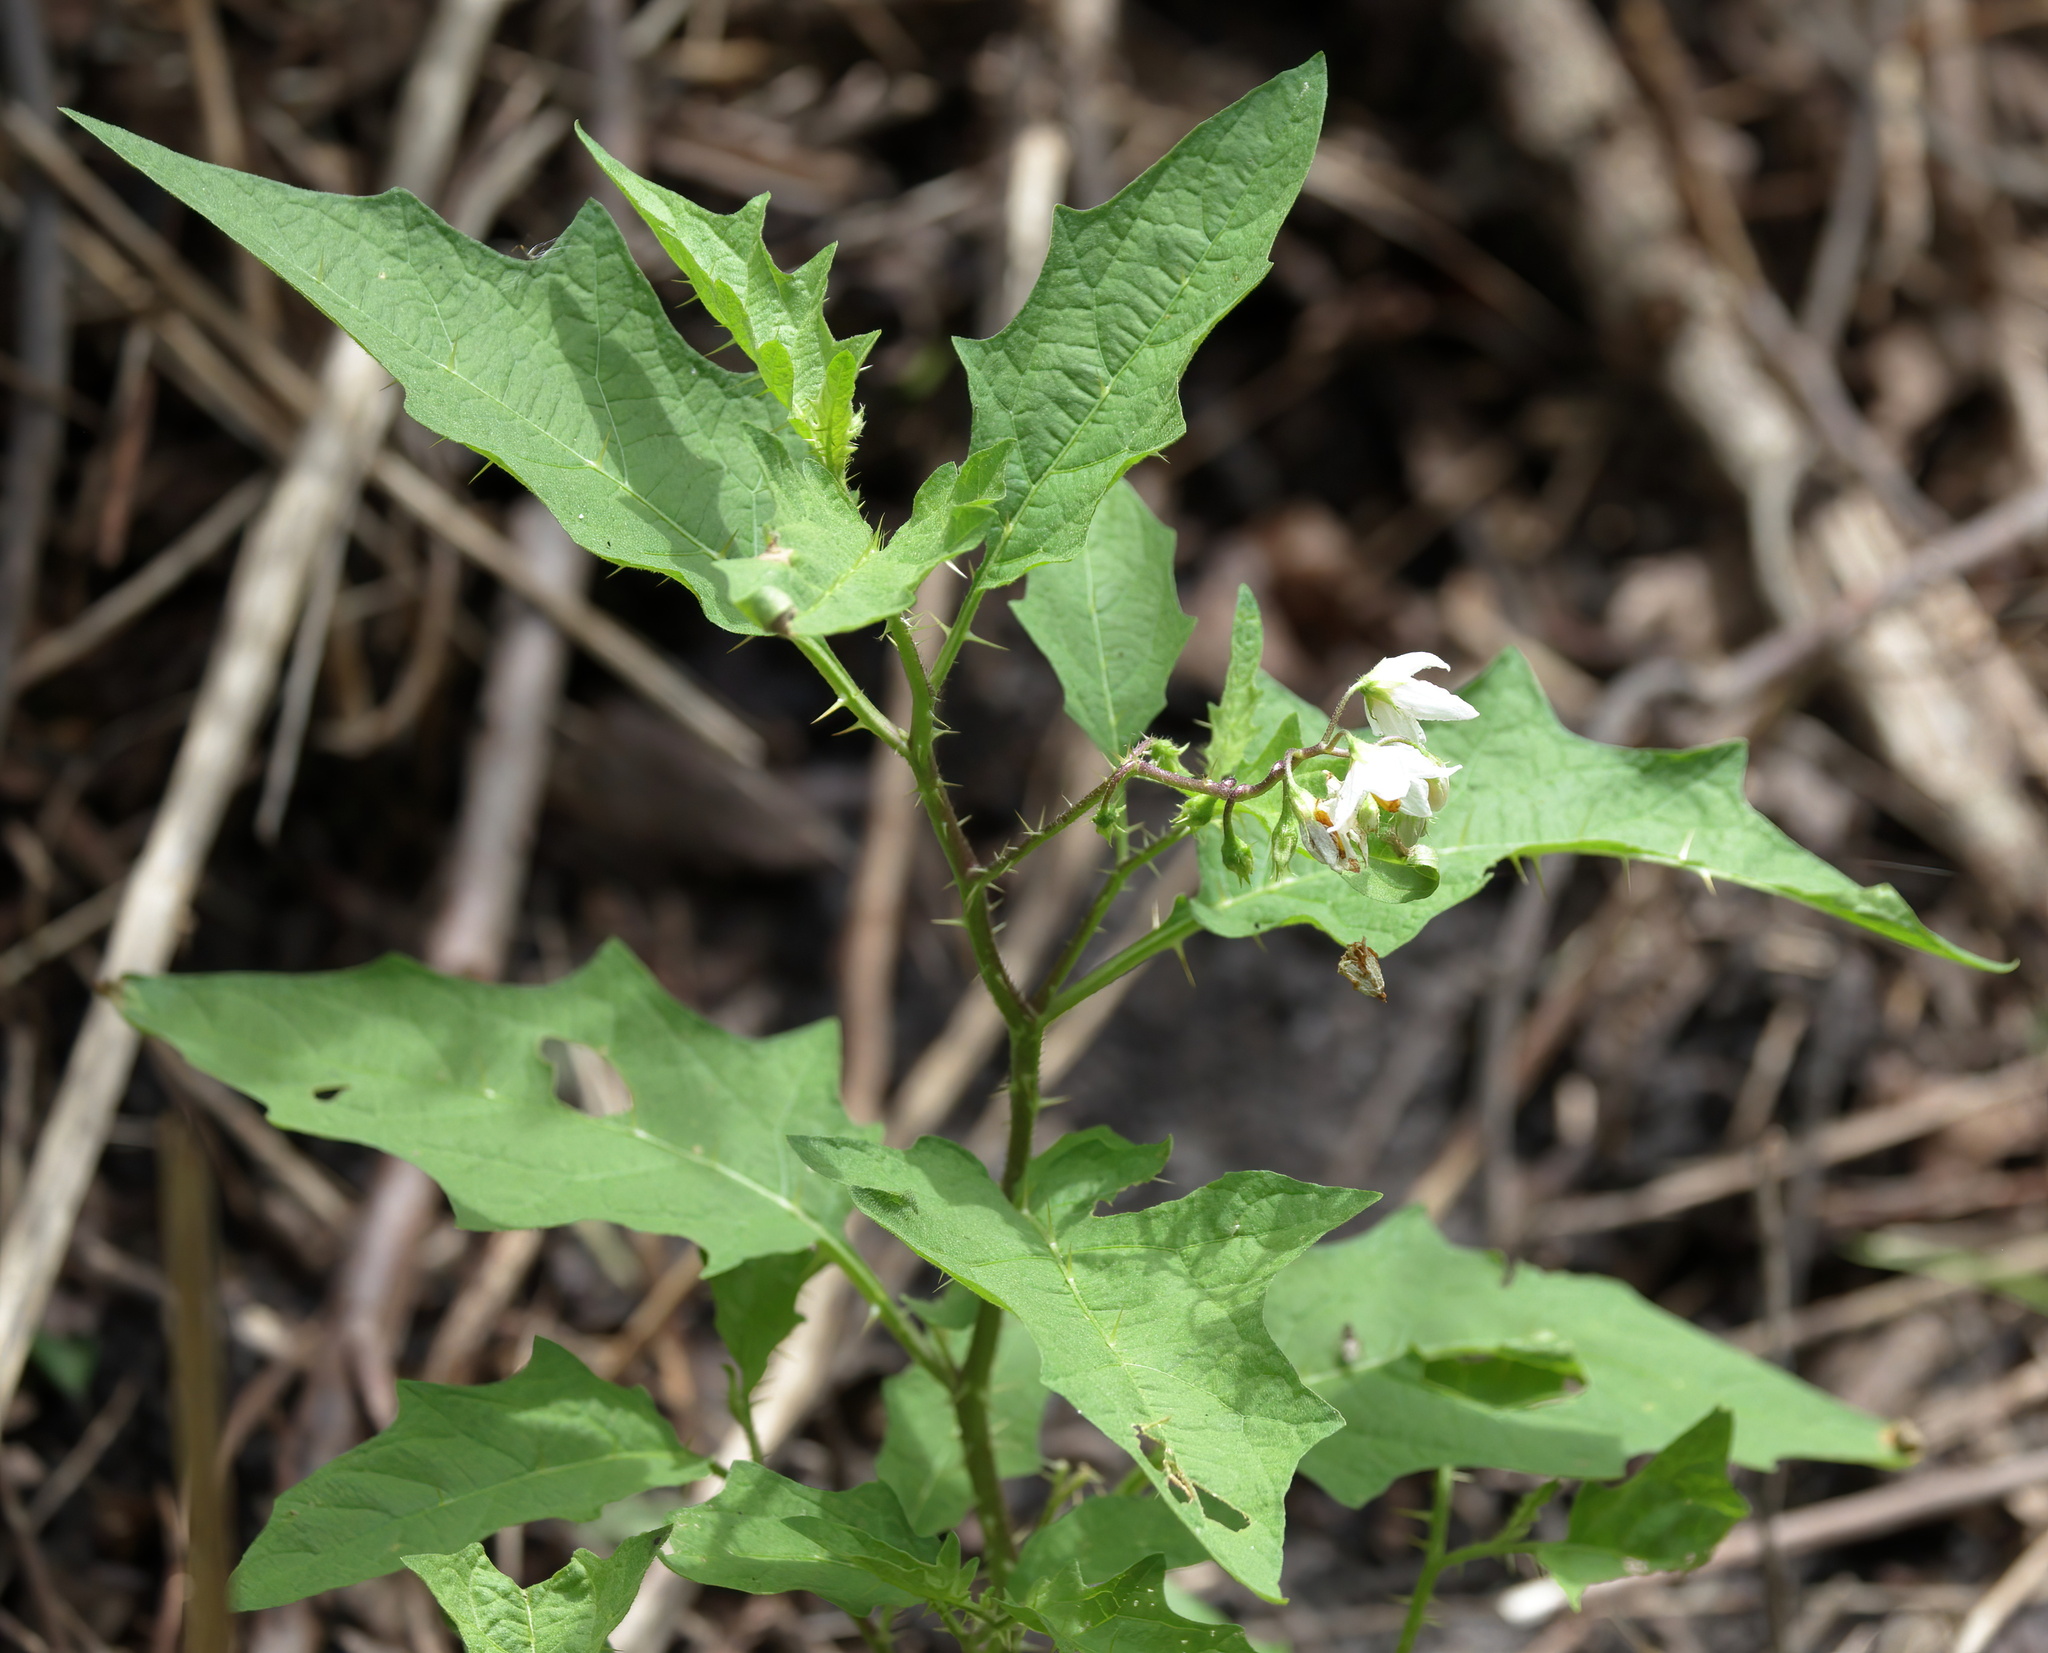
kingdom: Plantae
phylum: Tracheophyta
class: Magnoliopsida
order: Solanales
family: Solanaceae
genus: Solanum
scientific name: Solanum carolinense
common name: Horse-nettle
